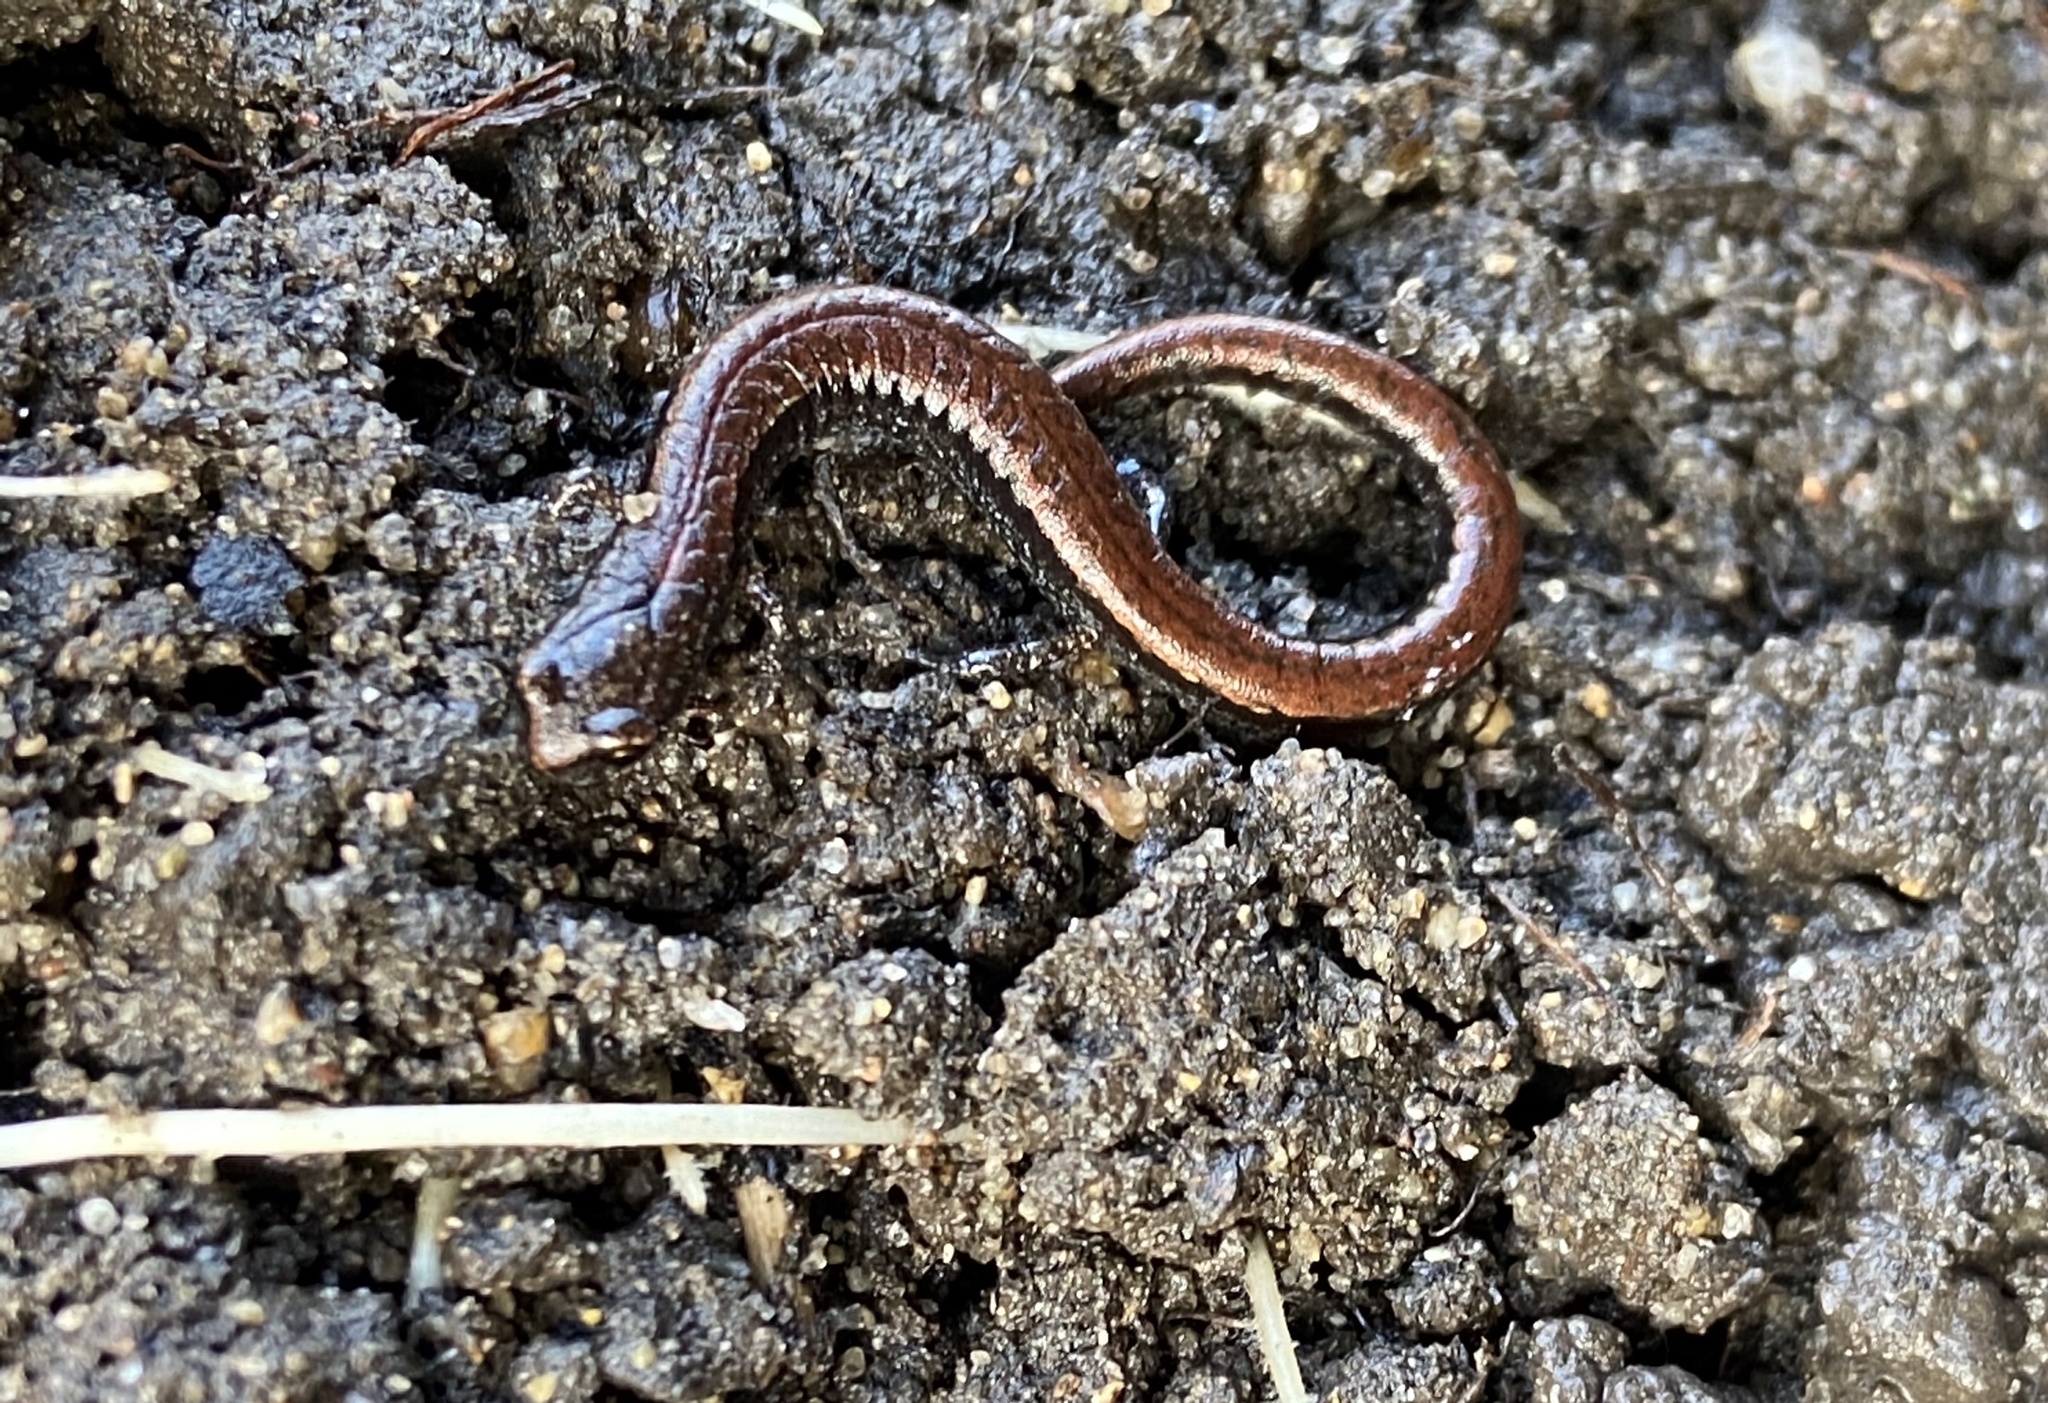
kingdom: Animalia
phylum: Chordata
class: Amphibia
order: Caudata
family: Plethodontidae
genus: Batrachoseps
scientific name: Batrachoseps attenuatus
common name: California slender salamander
